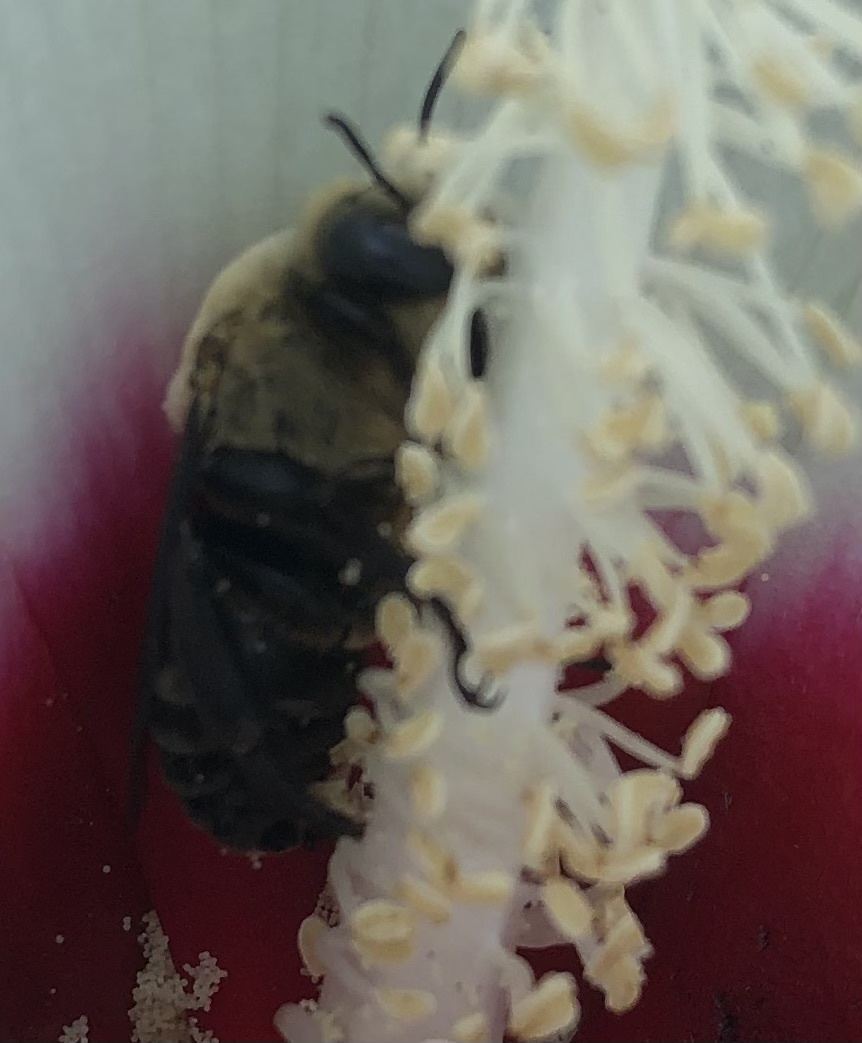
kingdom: Animalia
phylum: Arthropoda
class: Insecta
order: Hymenoptera
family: Apidae
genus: Ptilothrix
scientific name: Ptilothrix bombiformis
